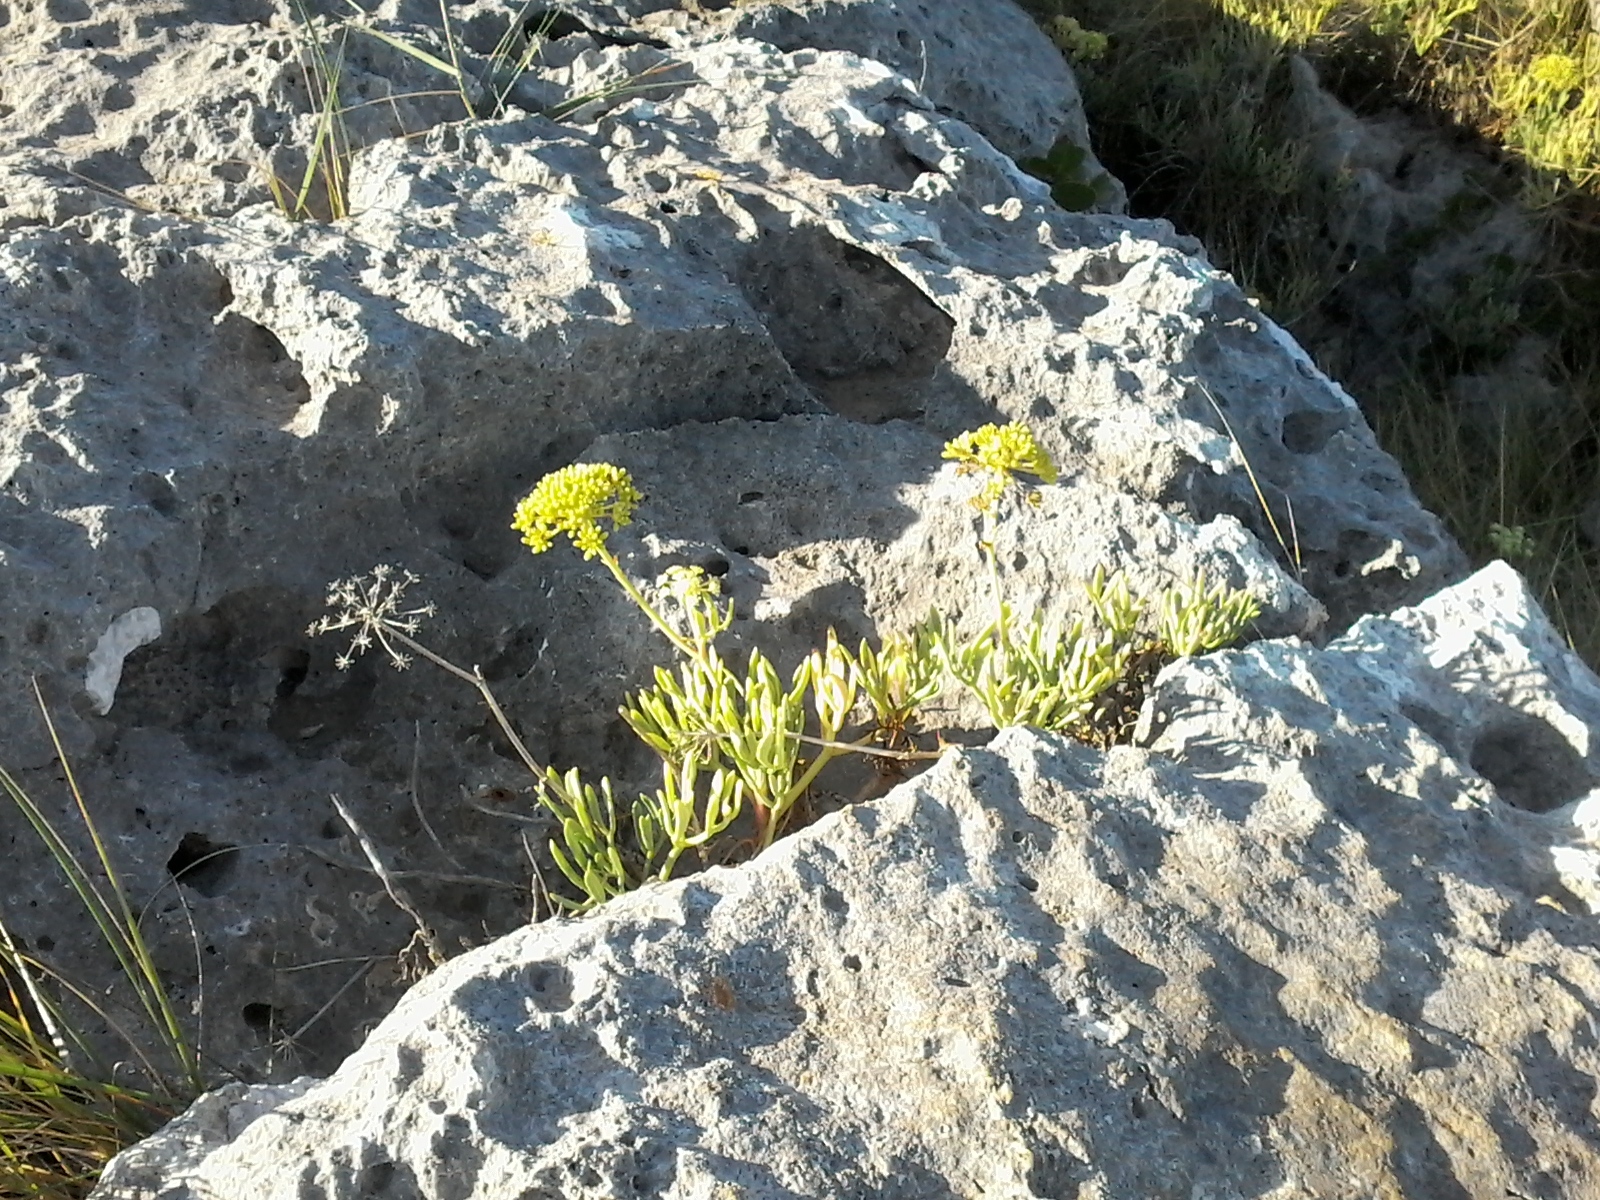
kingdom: Plantae
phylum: Tracheophyta
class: Magnoliopsida
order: Apiales
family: Apiaceae
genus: Crithmum
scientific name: Crithmum maritimum
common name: Rock samphire
